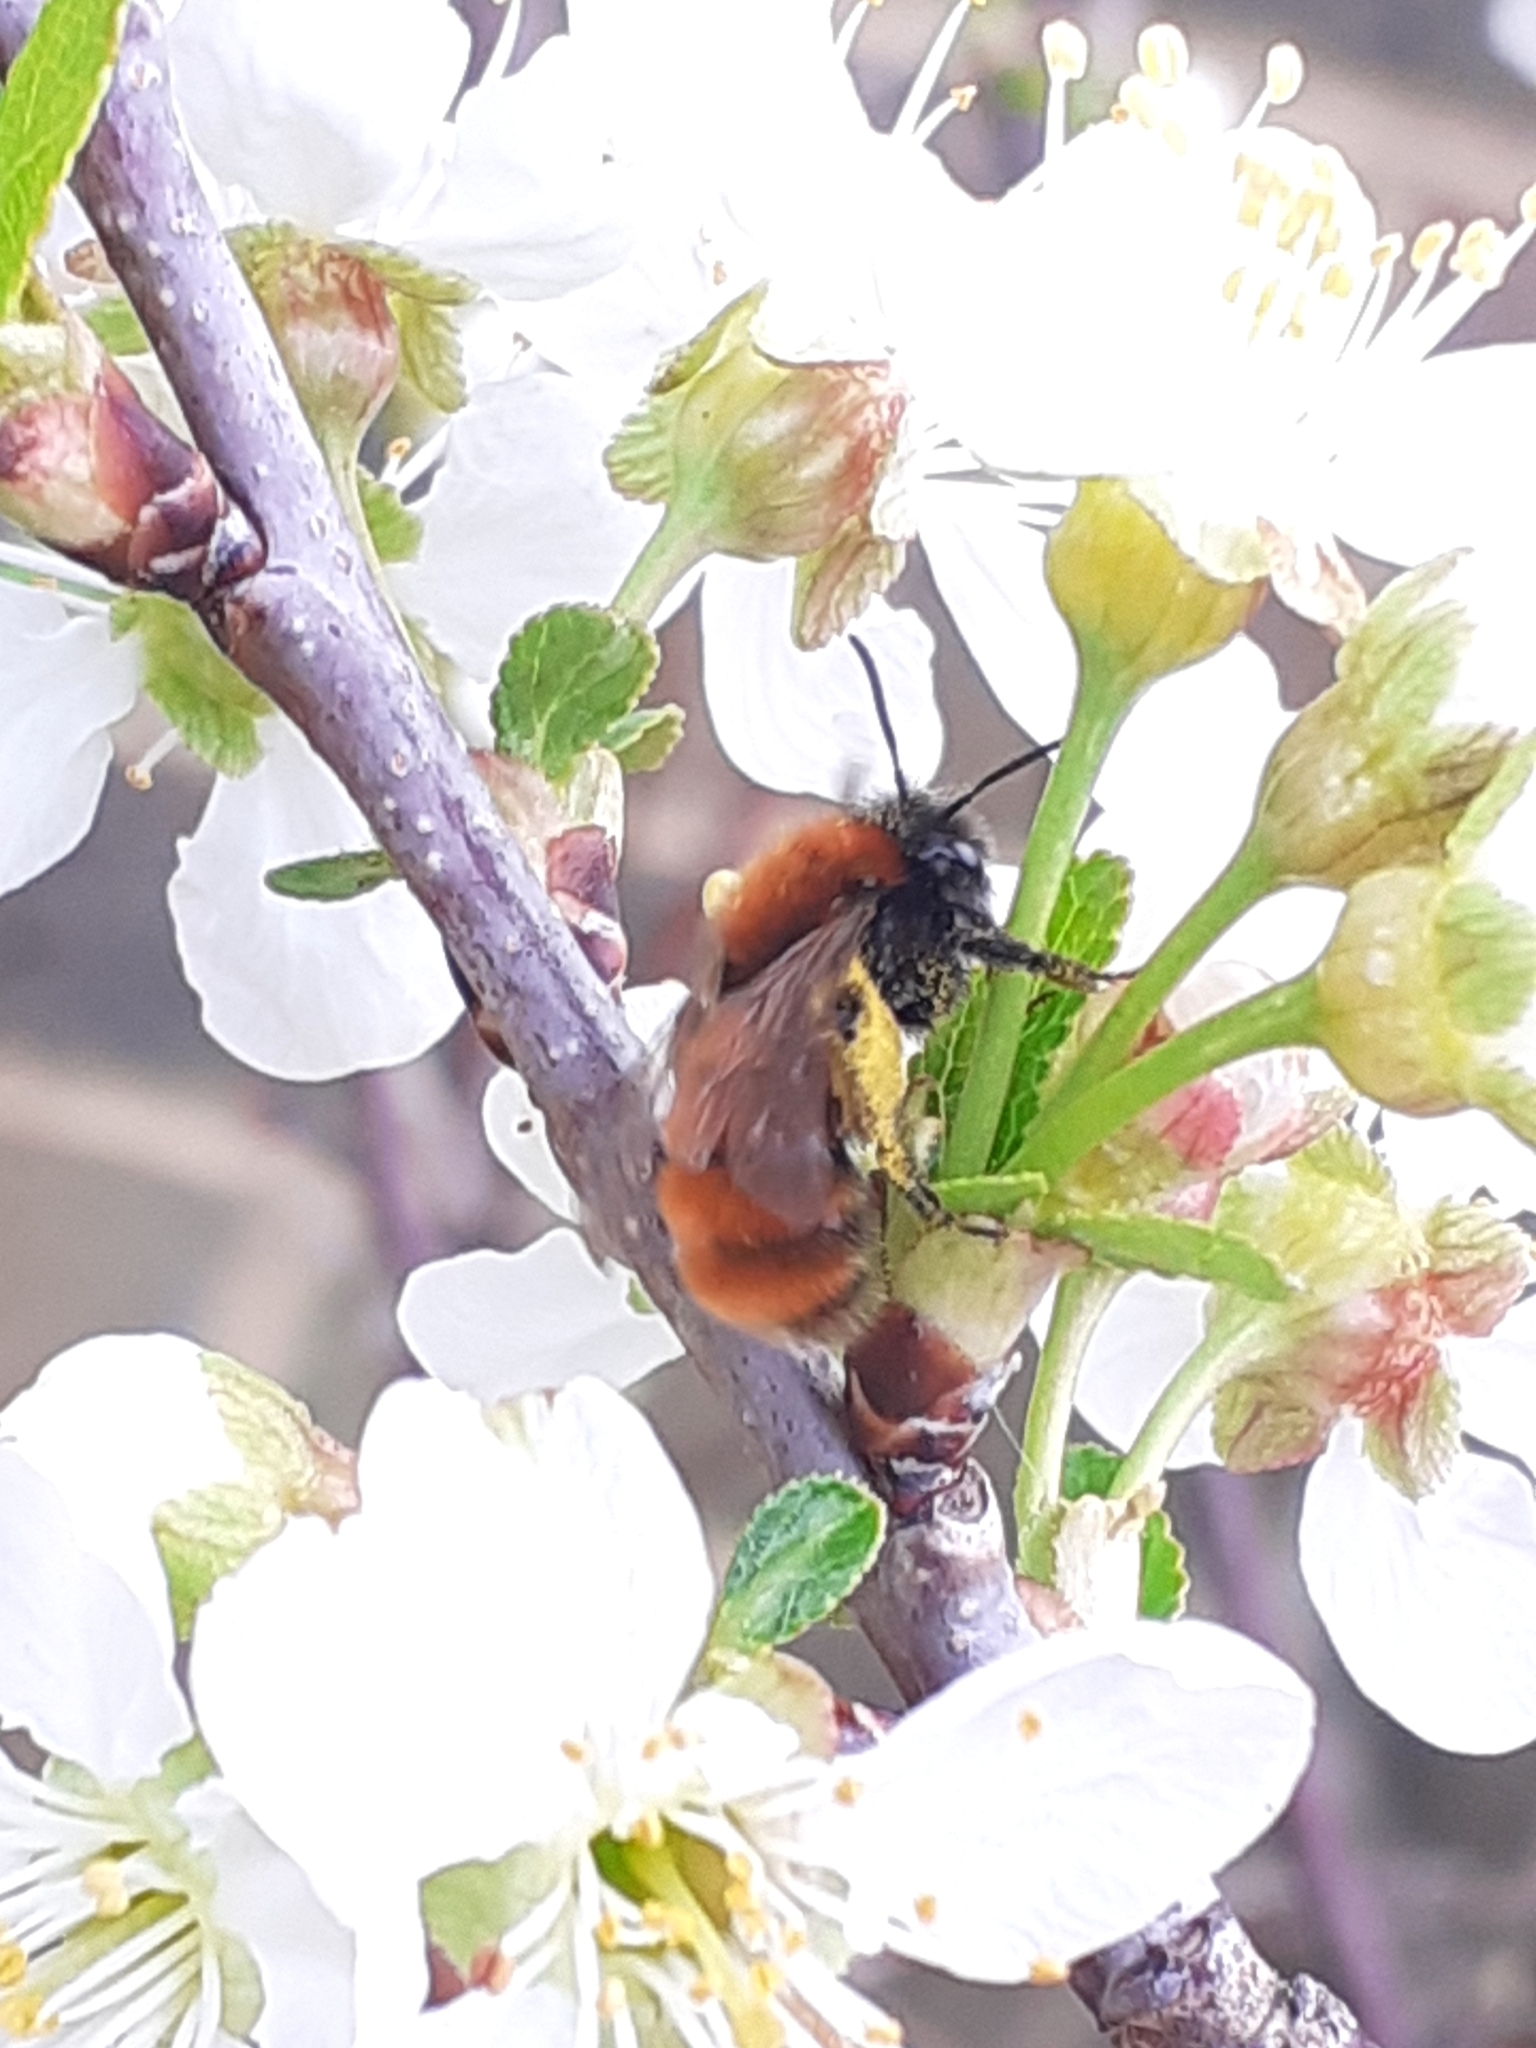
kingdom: Animalia
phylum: Arthropoda
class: Insecta
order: Hymenoptera
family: Andrenidae
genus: Andrena
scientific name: Andrena fulva
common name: Tawny mining bee
